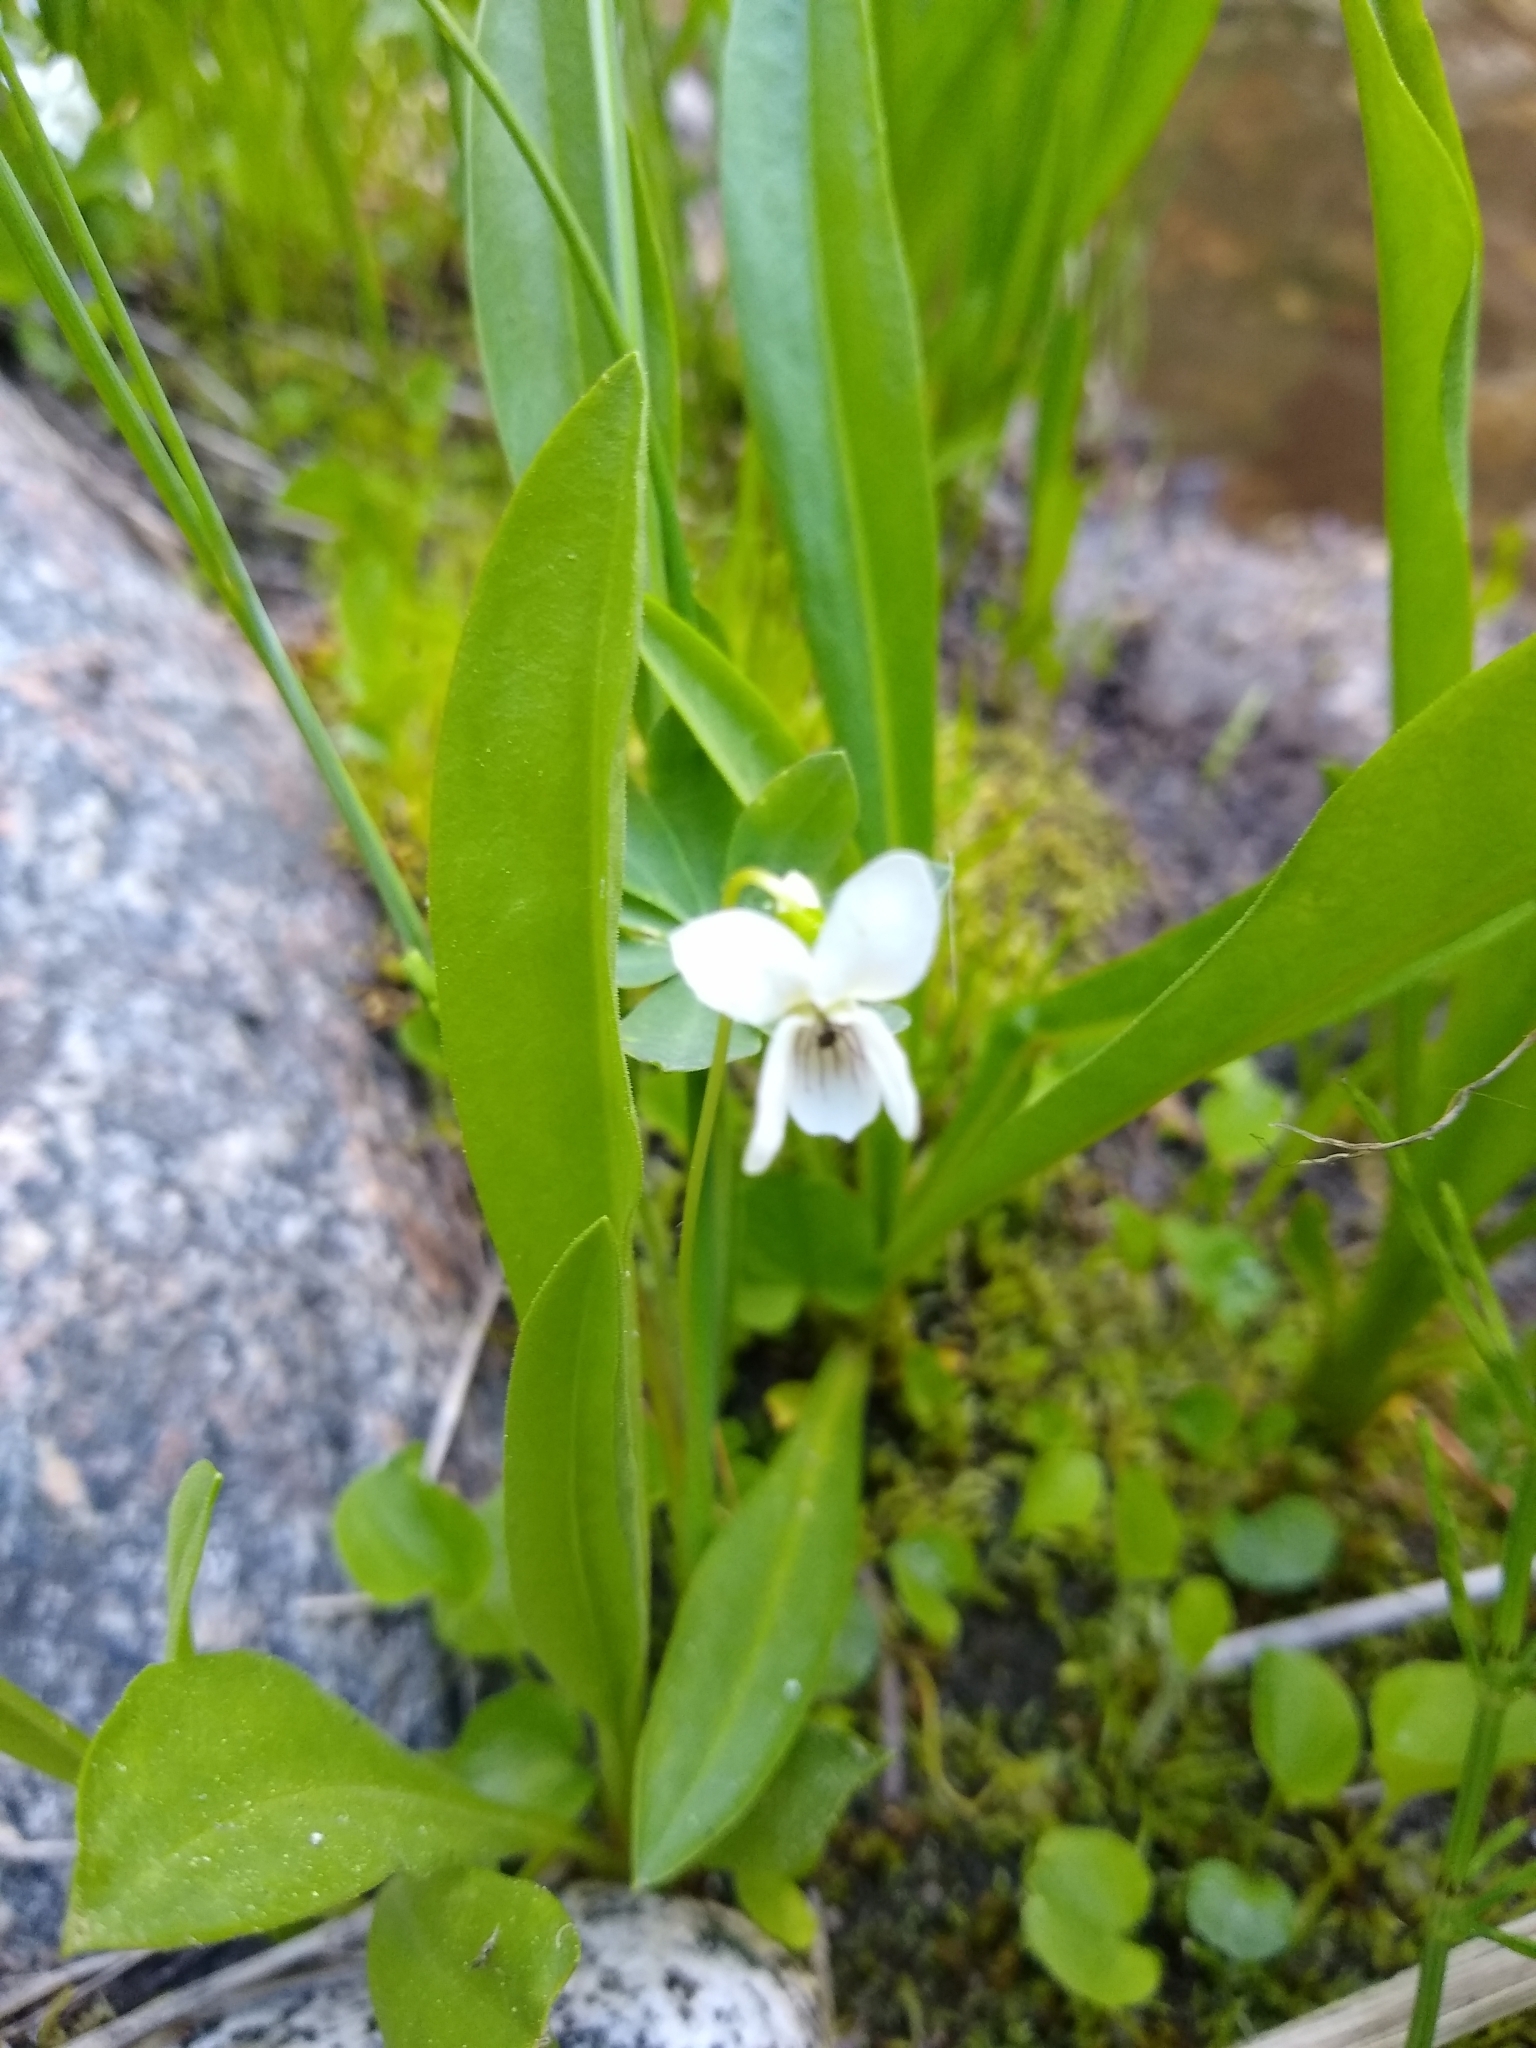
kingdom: Plantae
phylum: Tracheophyta
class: Magnoliopsida
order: Malpighiales
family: Violaceae
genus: Viola
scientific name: Viola macloskeyi
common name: Macloskey's violet
